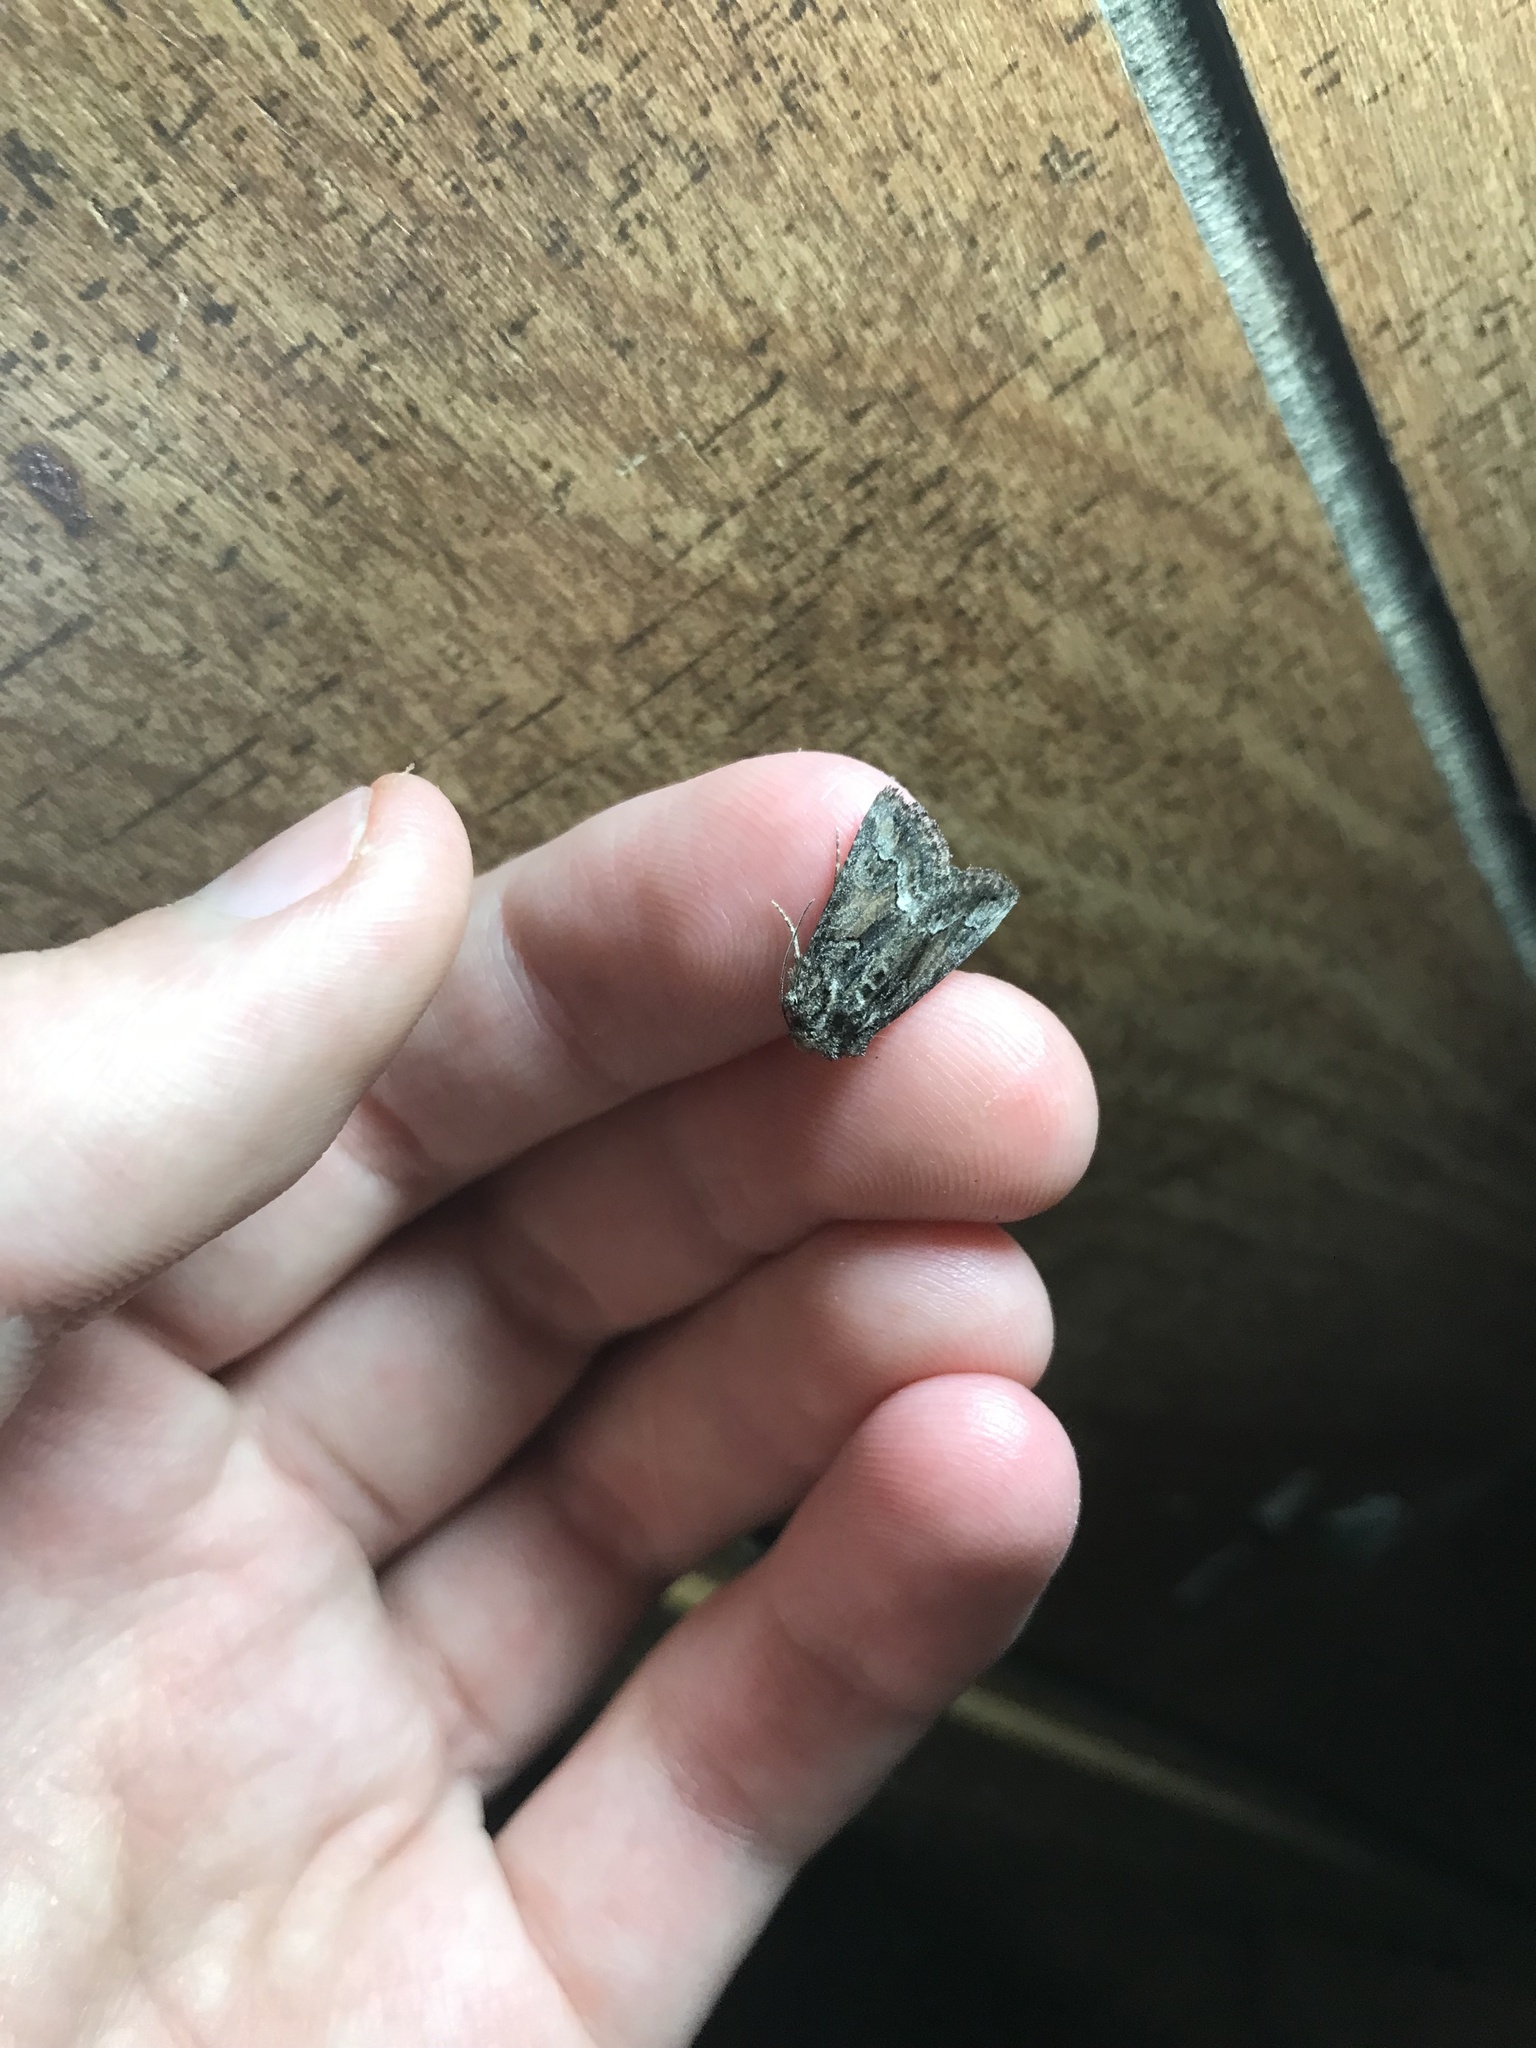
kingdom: Animalia
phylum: Arthropoda
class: Insecta
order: Lepidoptera
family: Noctuidae
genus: Pseudanarta
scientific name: Pseudanarta flava
